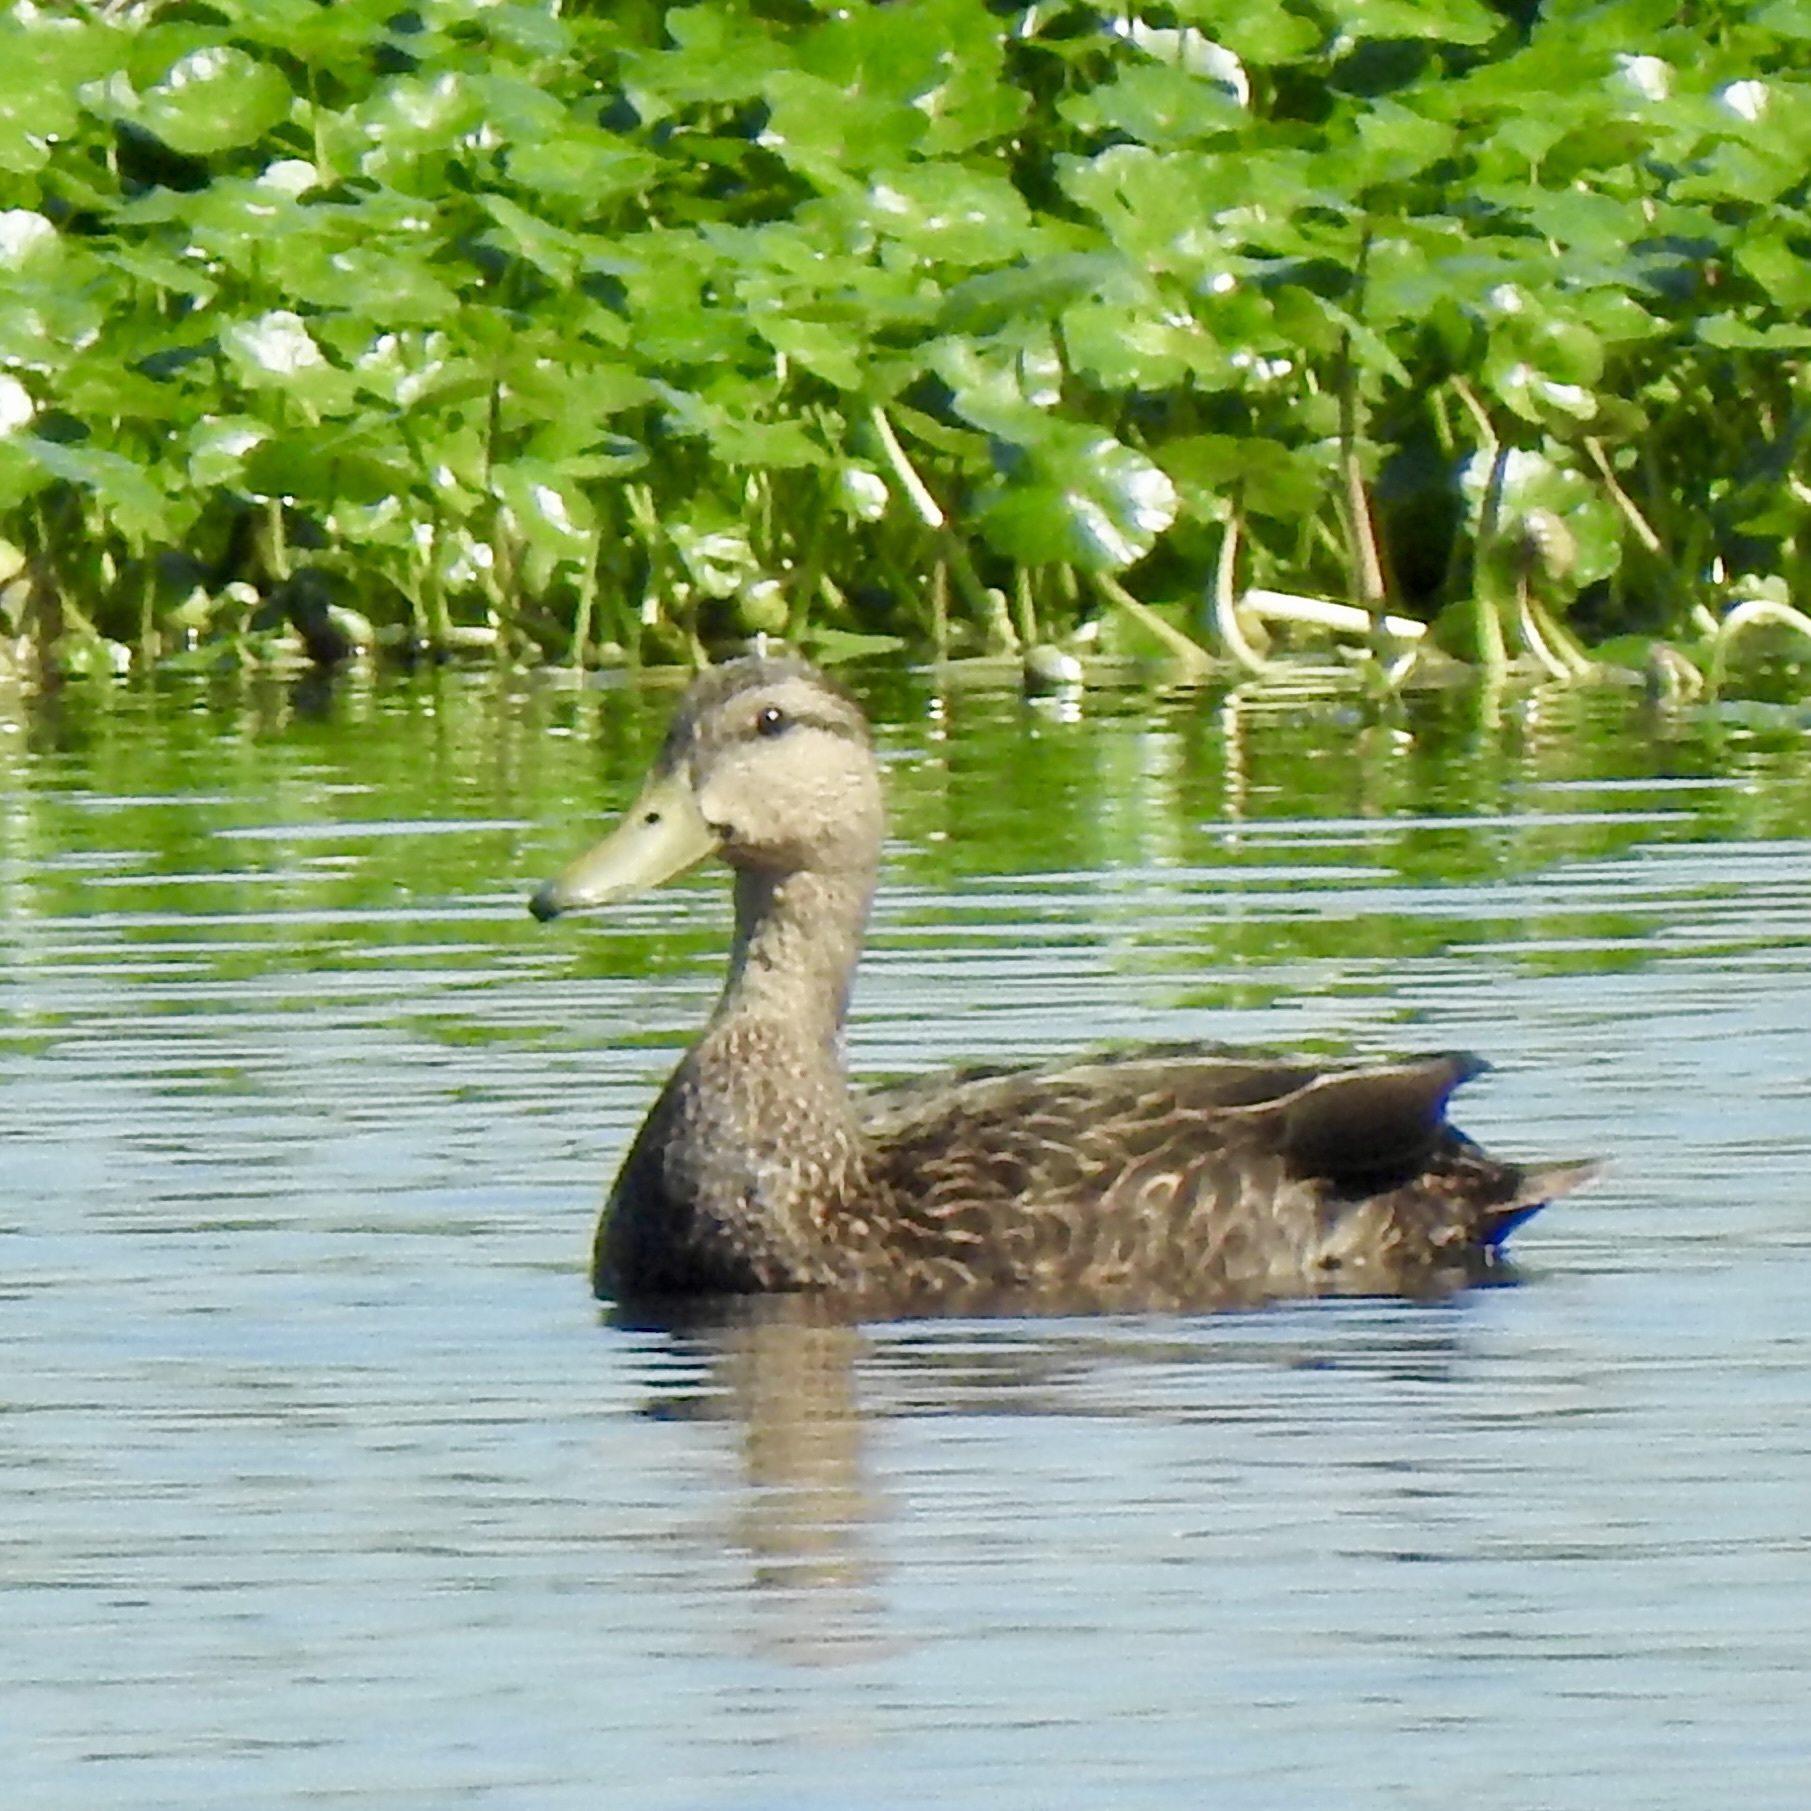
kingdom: Animalia
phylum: Chordata
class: Aves
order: Anseriformes
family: Anatidae
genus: Anas
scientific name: Anas fulvigula
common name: Mottled duck
